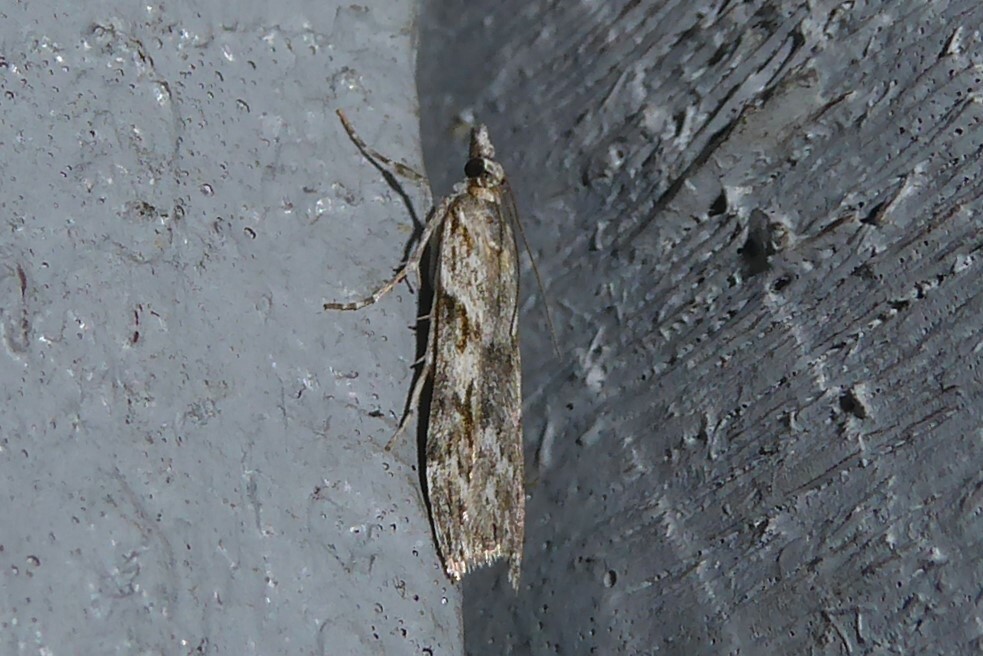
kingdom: Animalia
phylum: Arthropoda
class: Insecta
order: Lepidoptera
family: Crambidae
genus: Scoparia
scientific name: Scoparia halopis
